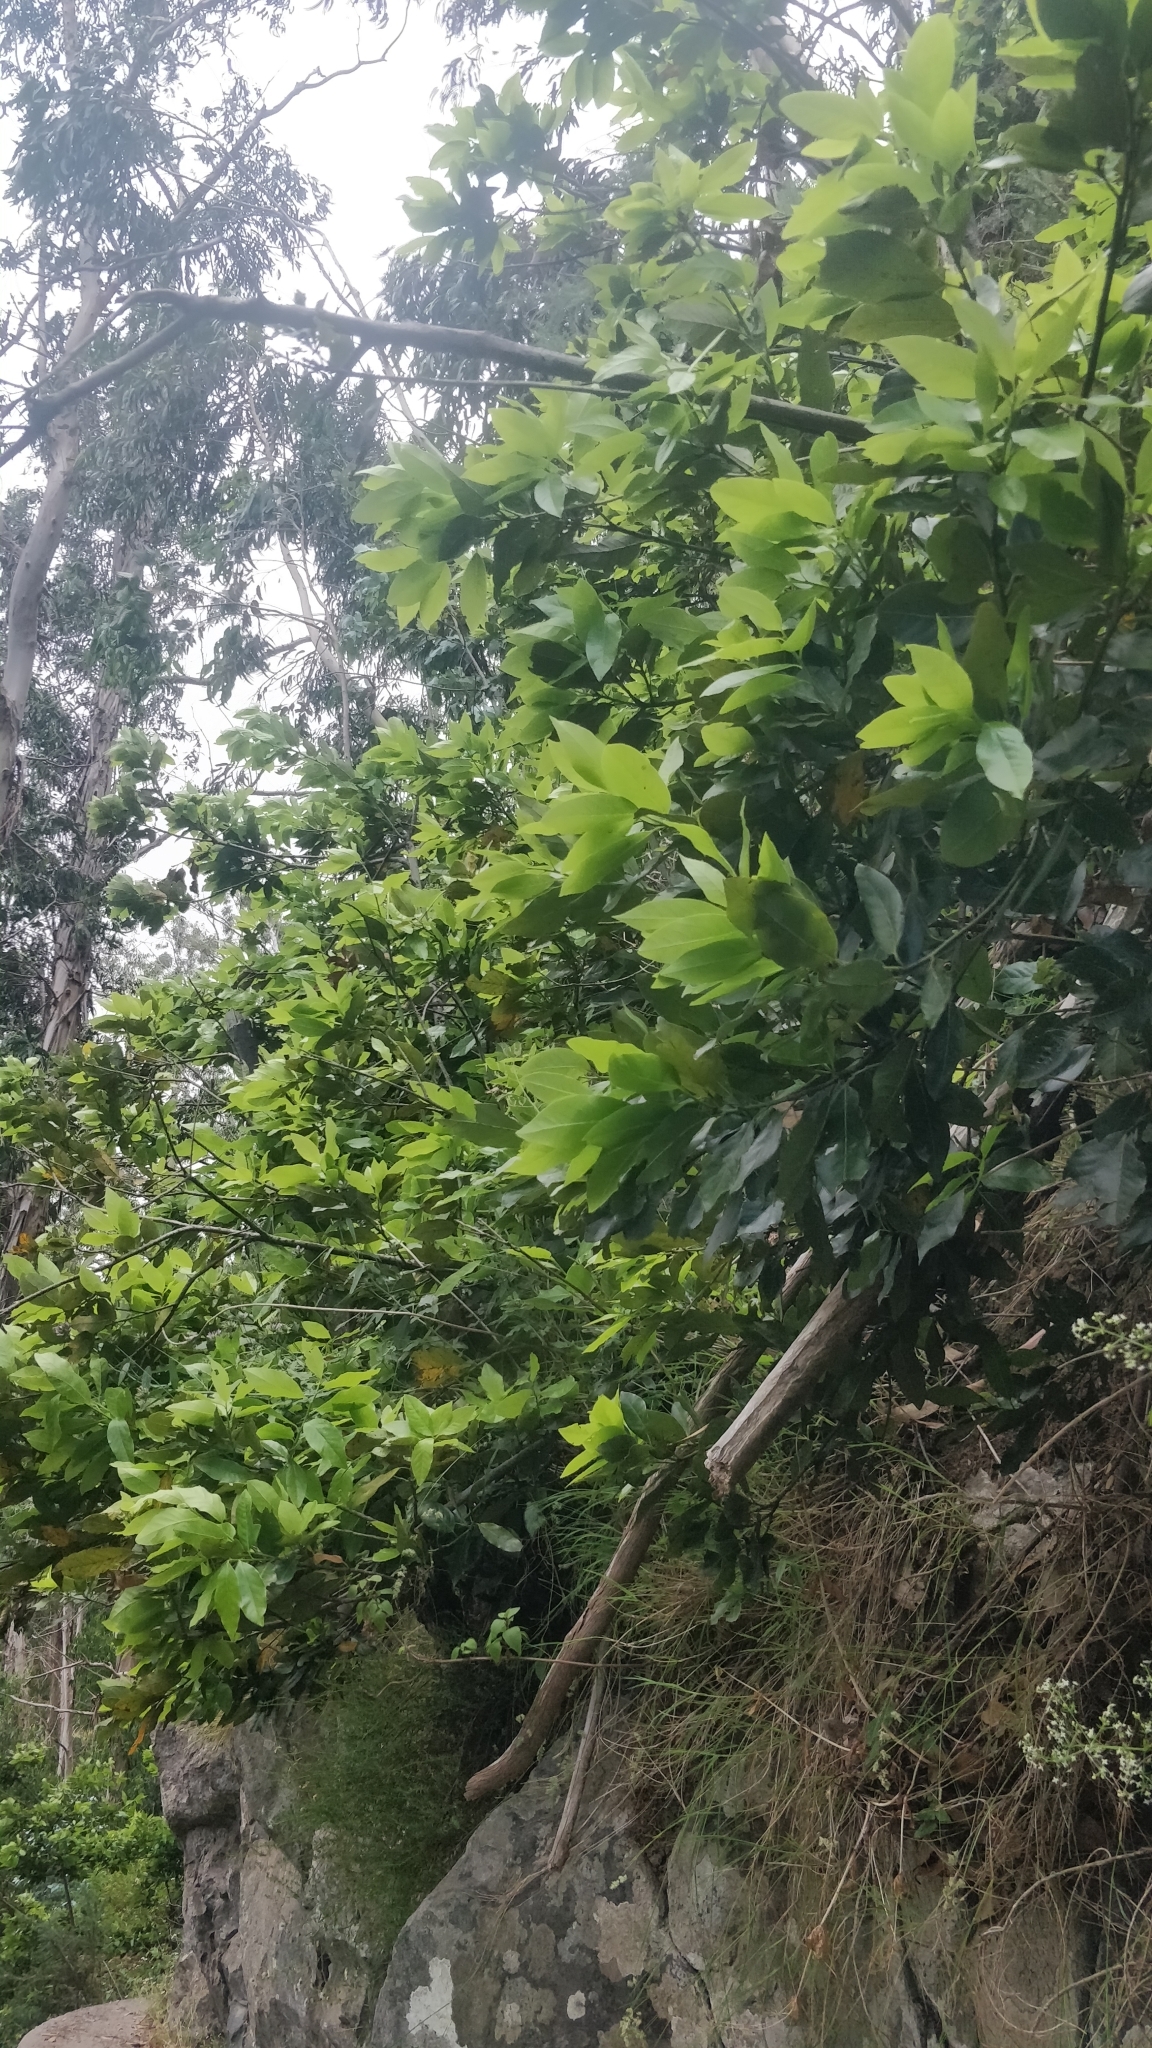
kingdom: Plantae
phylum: Tracheophyta
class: Magnoliopsida
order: Laurales
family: Lauraceae
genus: Laurus
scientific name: Laurus novocanariensis
